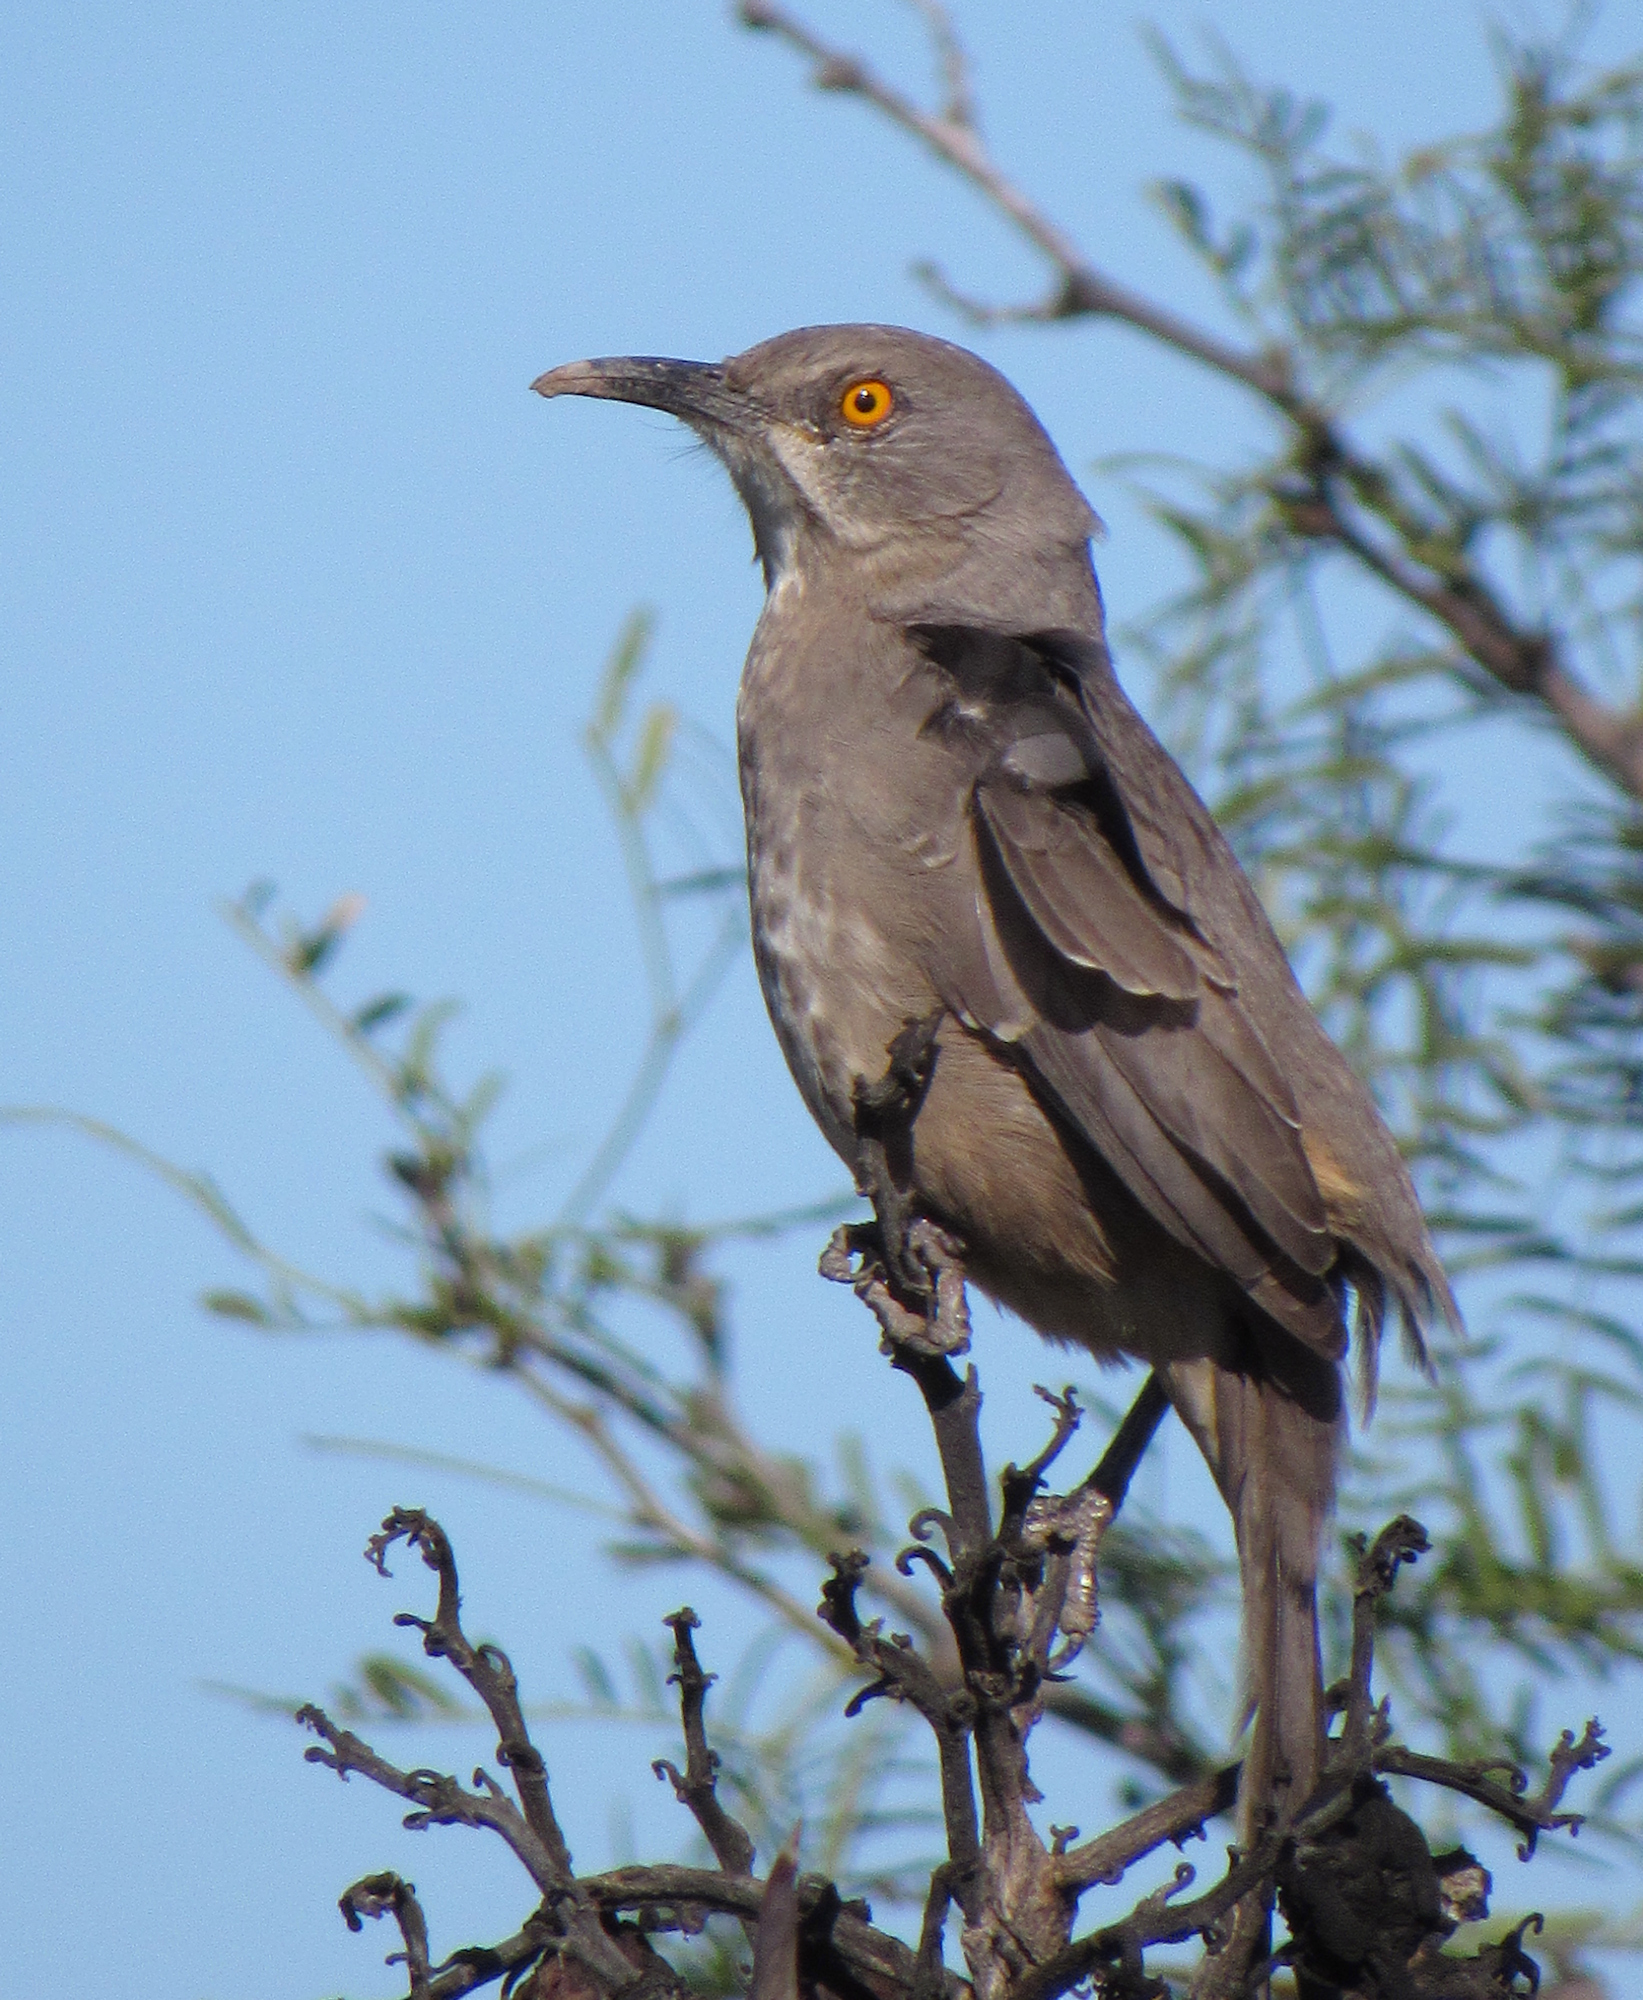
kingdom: Animalia
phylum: Chordata
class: Aves
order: Passeriformes
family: Mimidae
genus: Toxostoma
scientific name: Toxostoma curvirostre
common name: Curve-billed thrasher
